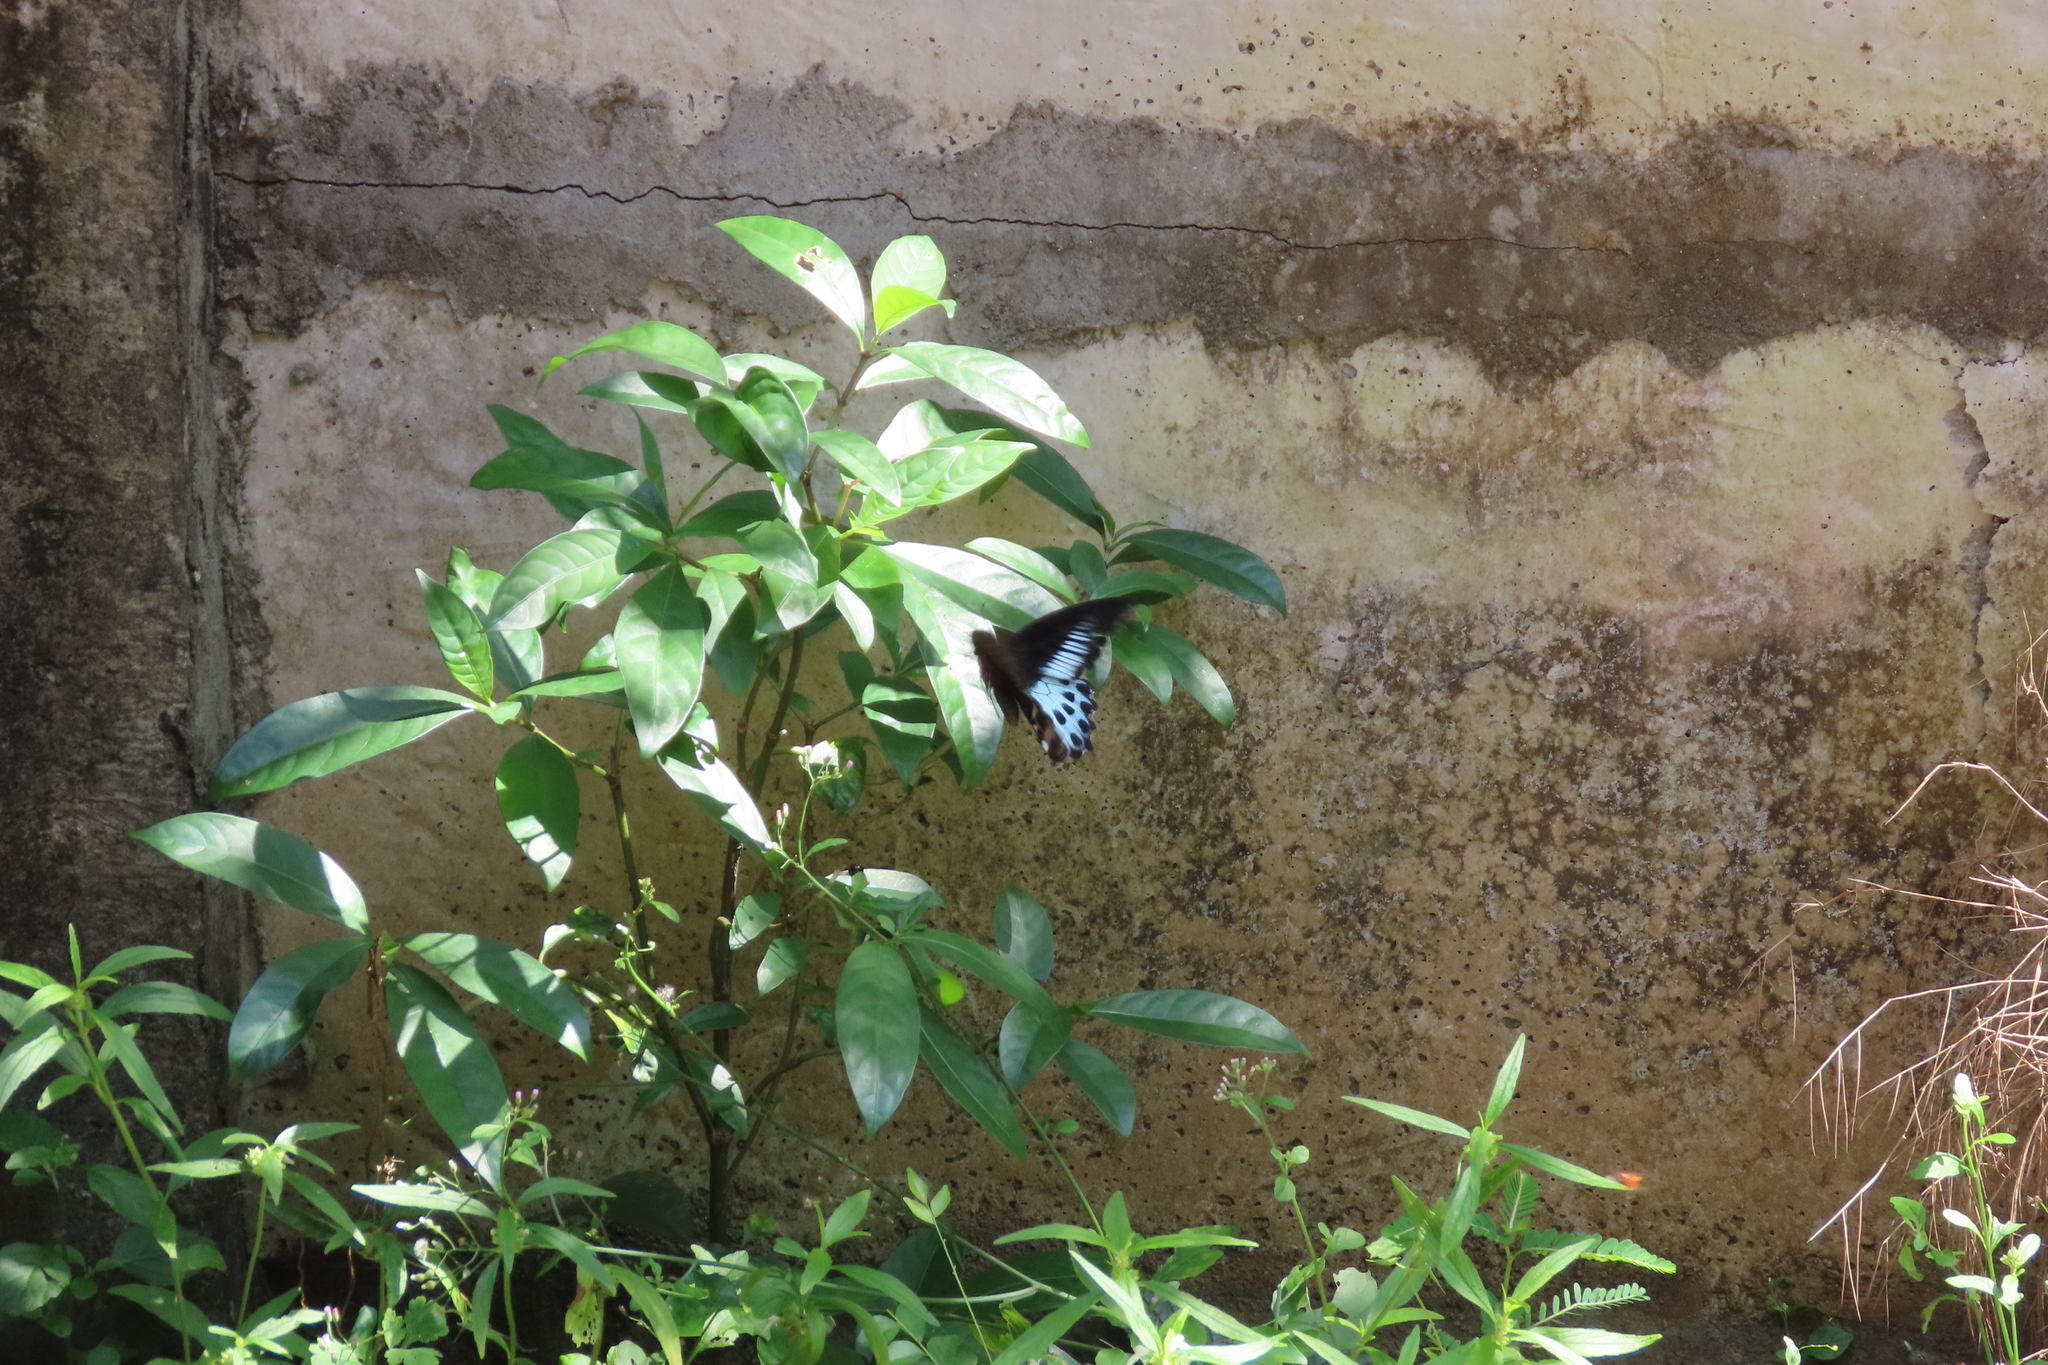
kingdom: Animalia
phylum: Arthropoda
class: Insecta
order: Lepidoptera
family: Papilionidae
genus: Papilio
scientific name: Papilio memnon
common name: Great mormon
